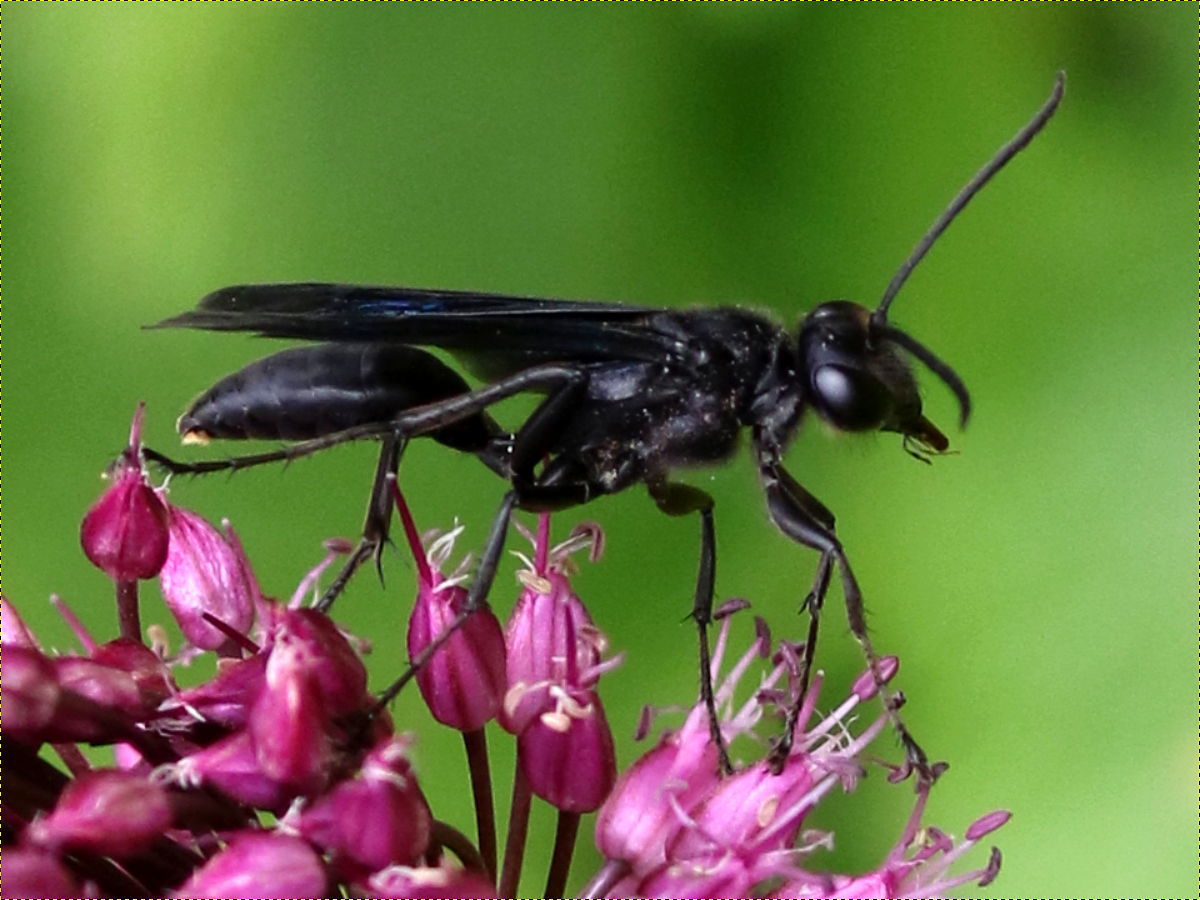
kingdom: Animalia
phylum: Arthropoda
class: Insecta
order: Hymenoptera
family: Sphecidae
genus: Sphex
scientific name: Sphex pensylvanicus
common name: Great black digger wasp
